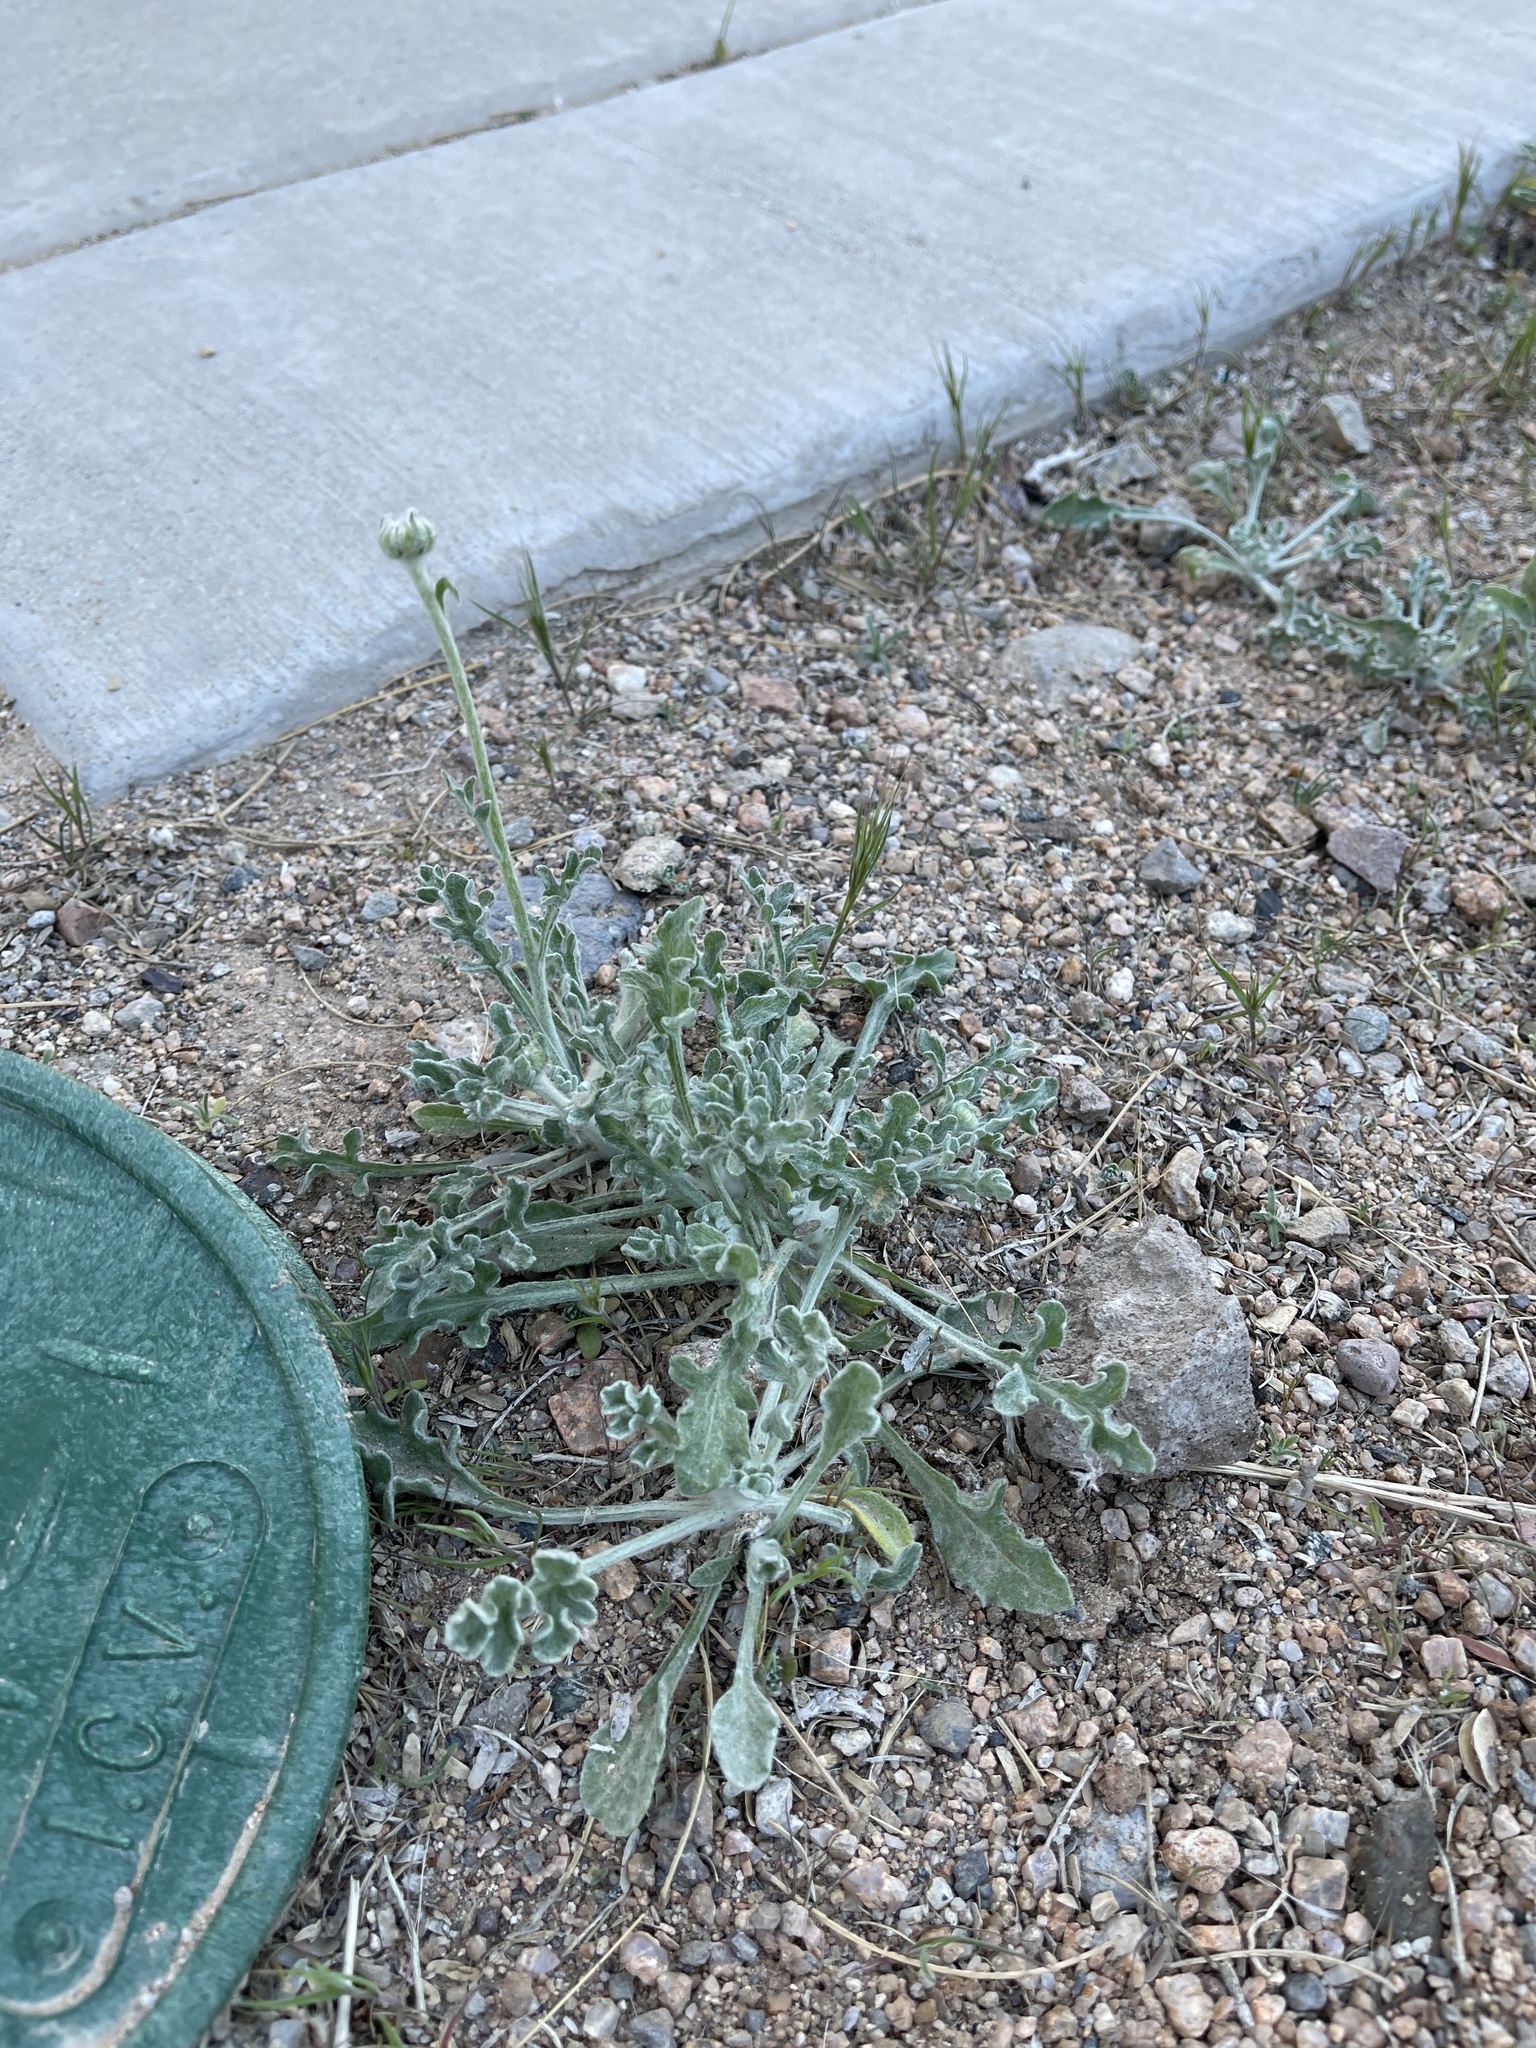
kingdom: Plantae
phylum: Tracheophyta
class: Magnoliopsida
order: Asterales
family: Asteraceae
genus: Baileya
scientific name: Baileya multiradiata
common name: Desert-marigold
